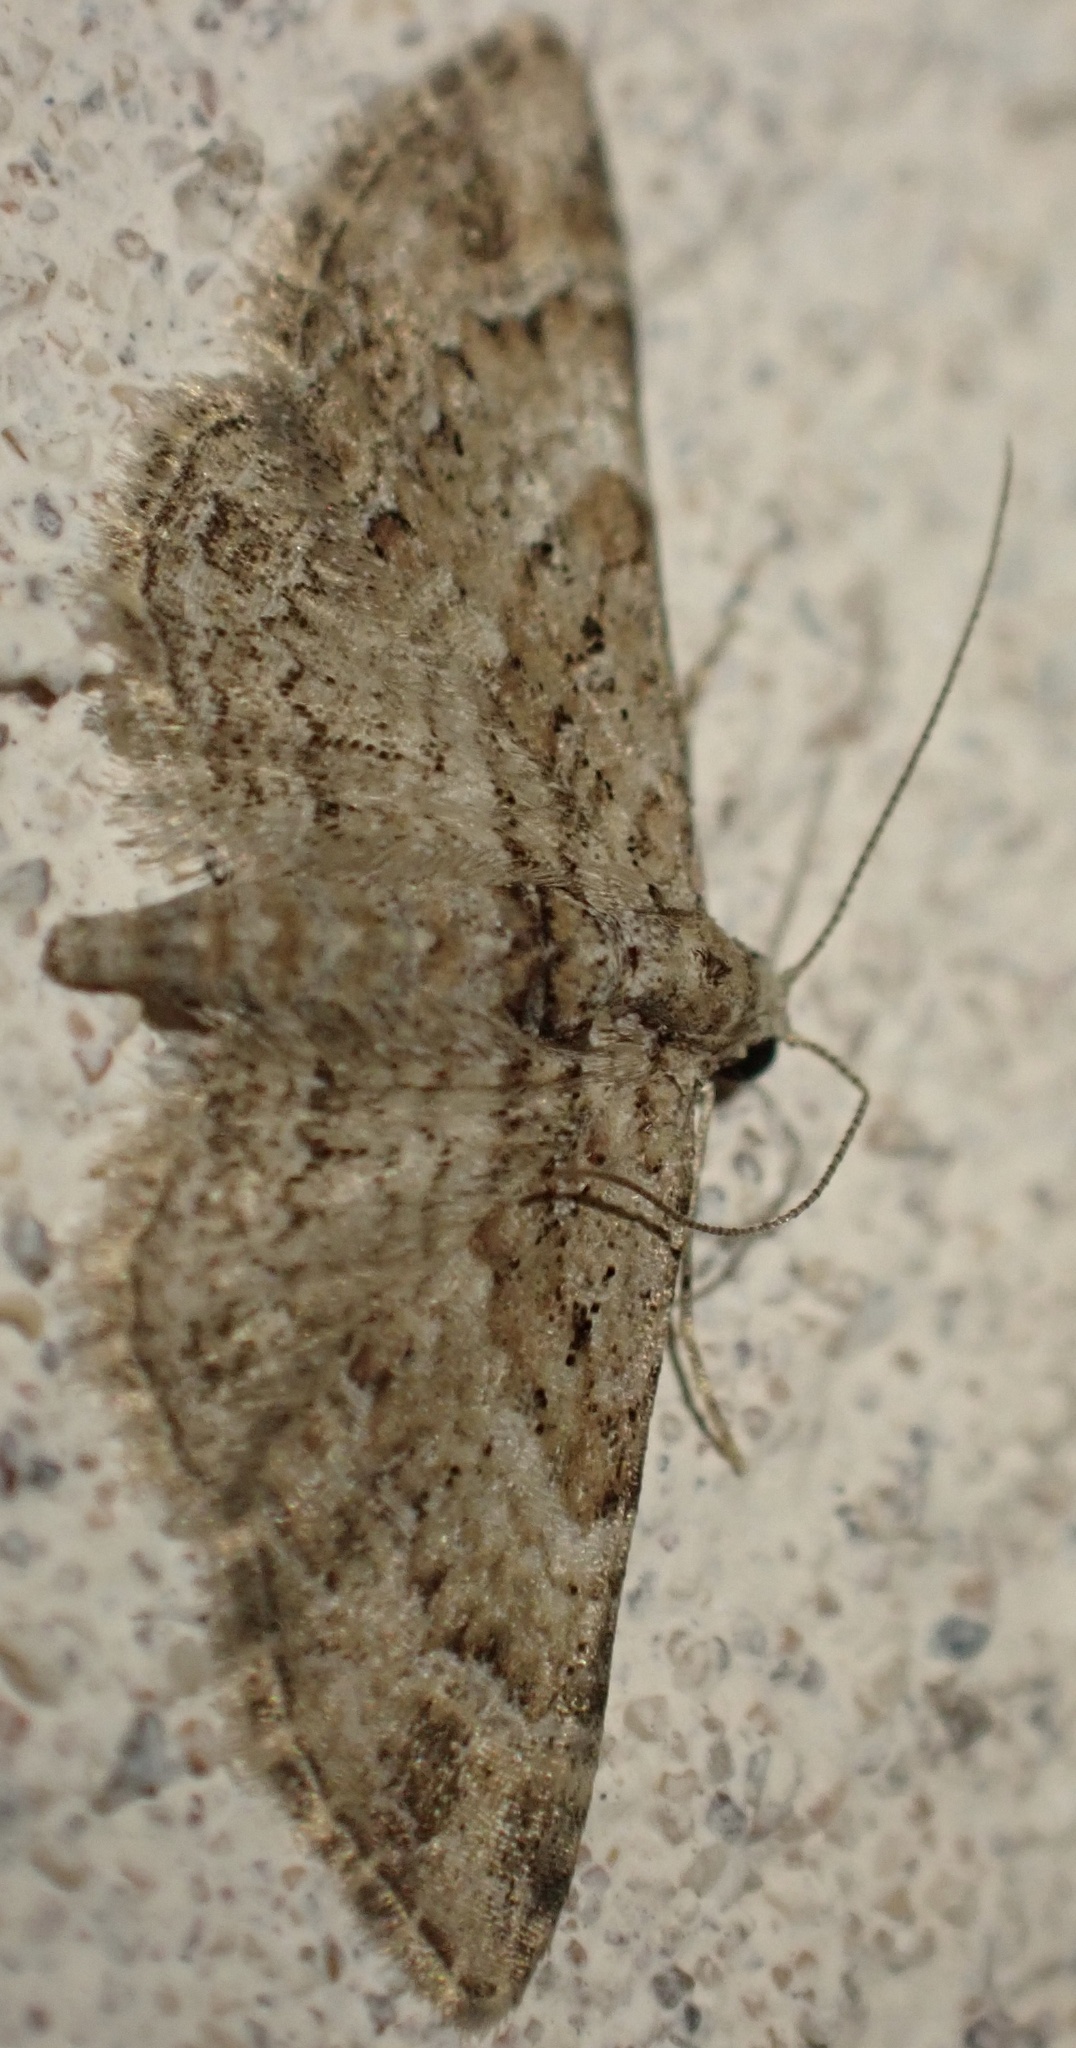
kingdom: Animalia
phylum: Arthropoda
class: Insecta
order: Lepidoptera
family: Geometridae
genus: Gymnoscelis
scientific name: Gymnoscelis rufifasciata
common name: Double-striped pug
